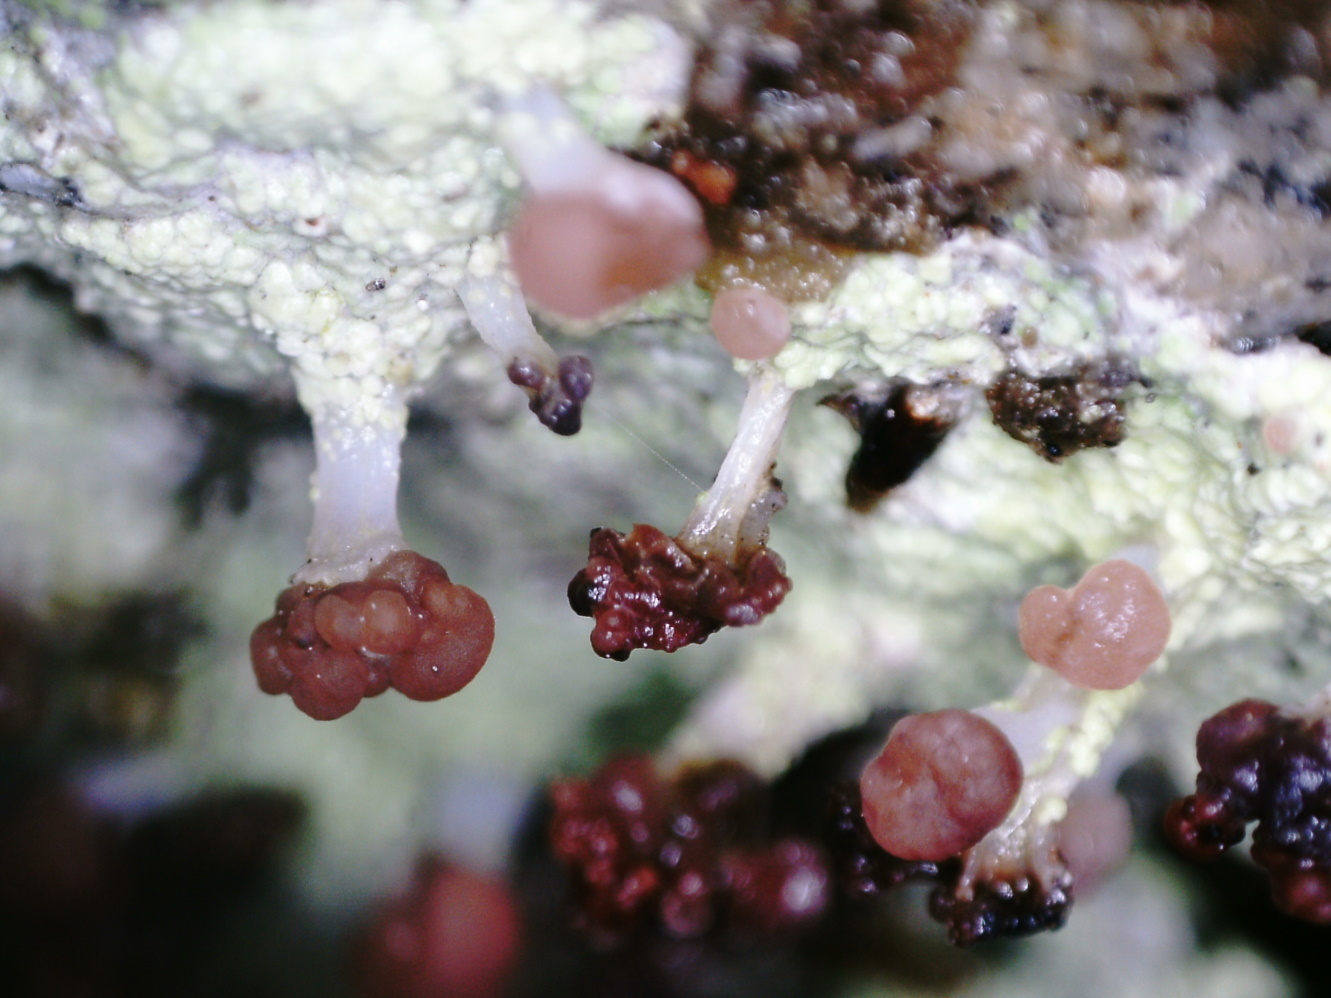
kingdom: Fungi
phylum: Ascomycota
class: Lecanoromycetes
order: Baeomycetales
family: Baeomycetaceae
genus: Baeomyces
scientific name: Baeomyces carneus
